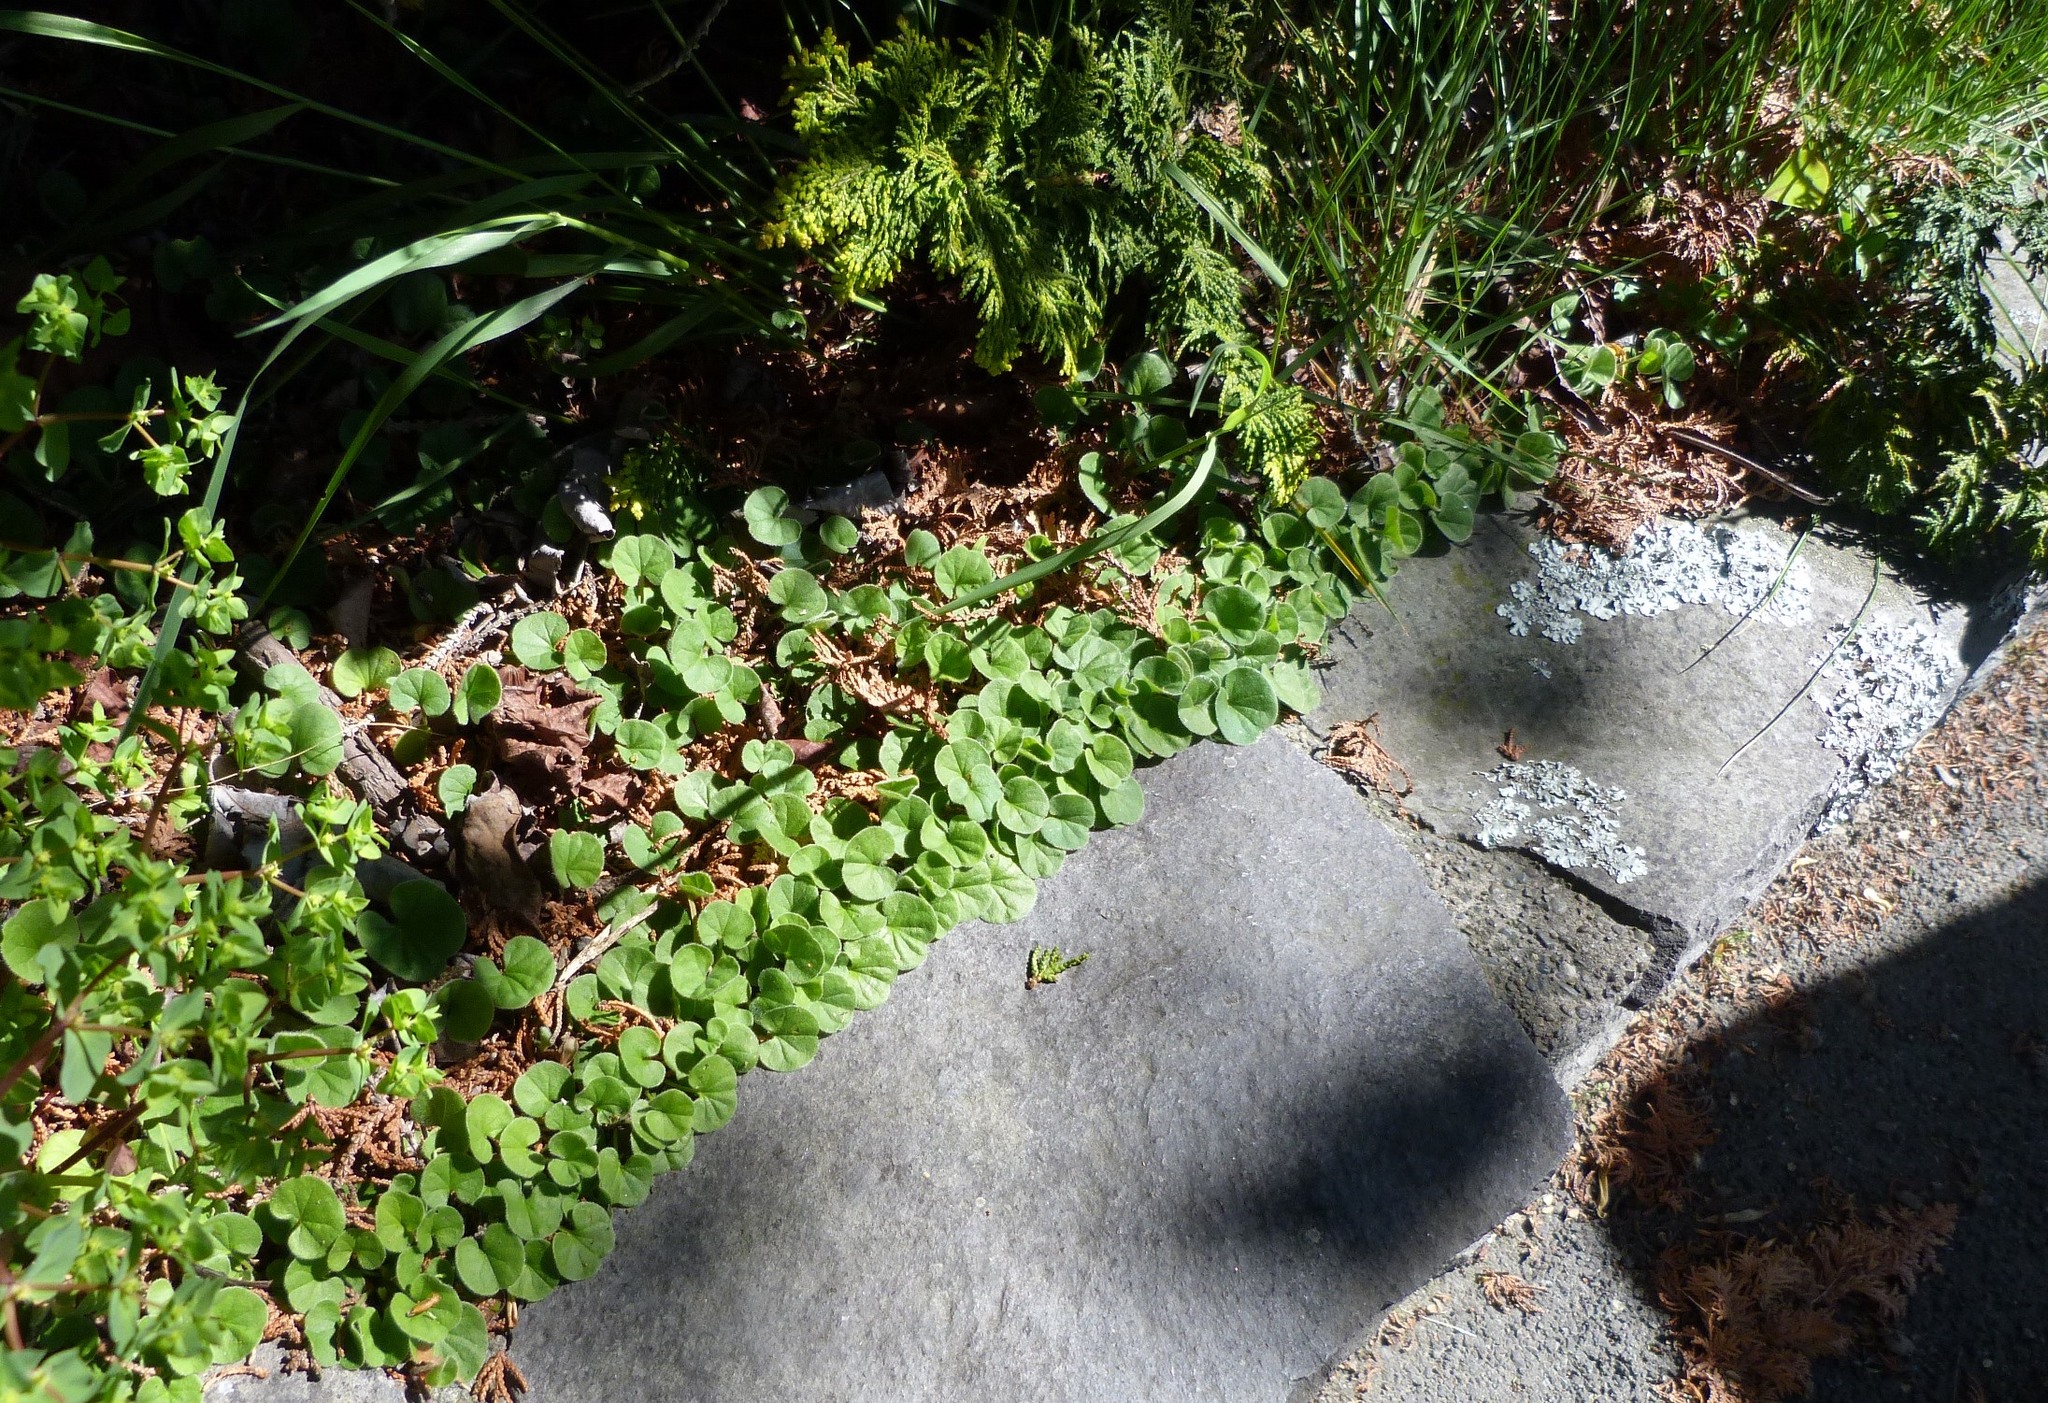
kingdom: Plantae
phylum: Tracheophyta
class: Magnoliopsida
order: Solanales
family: Convolvulaceae
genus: Dichondra
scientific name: Dichondra repens
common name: Kidneyweed
